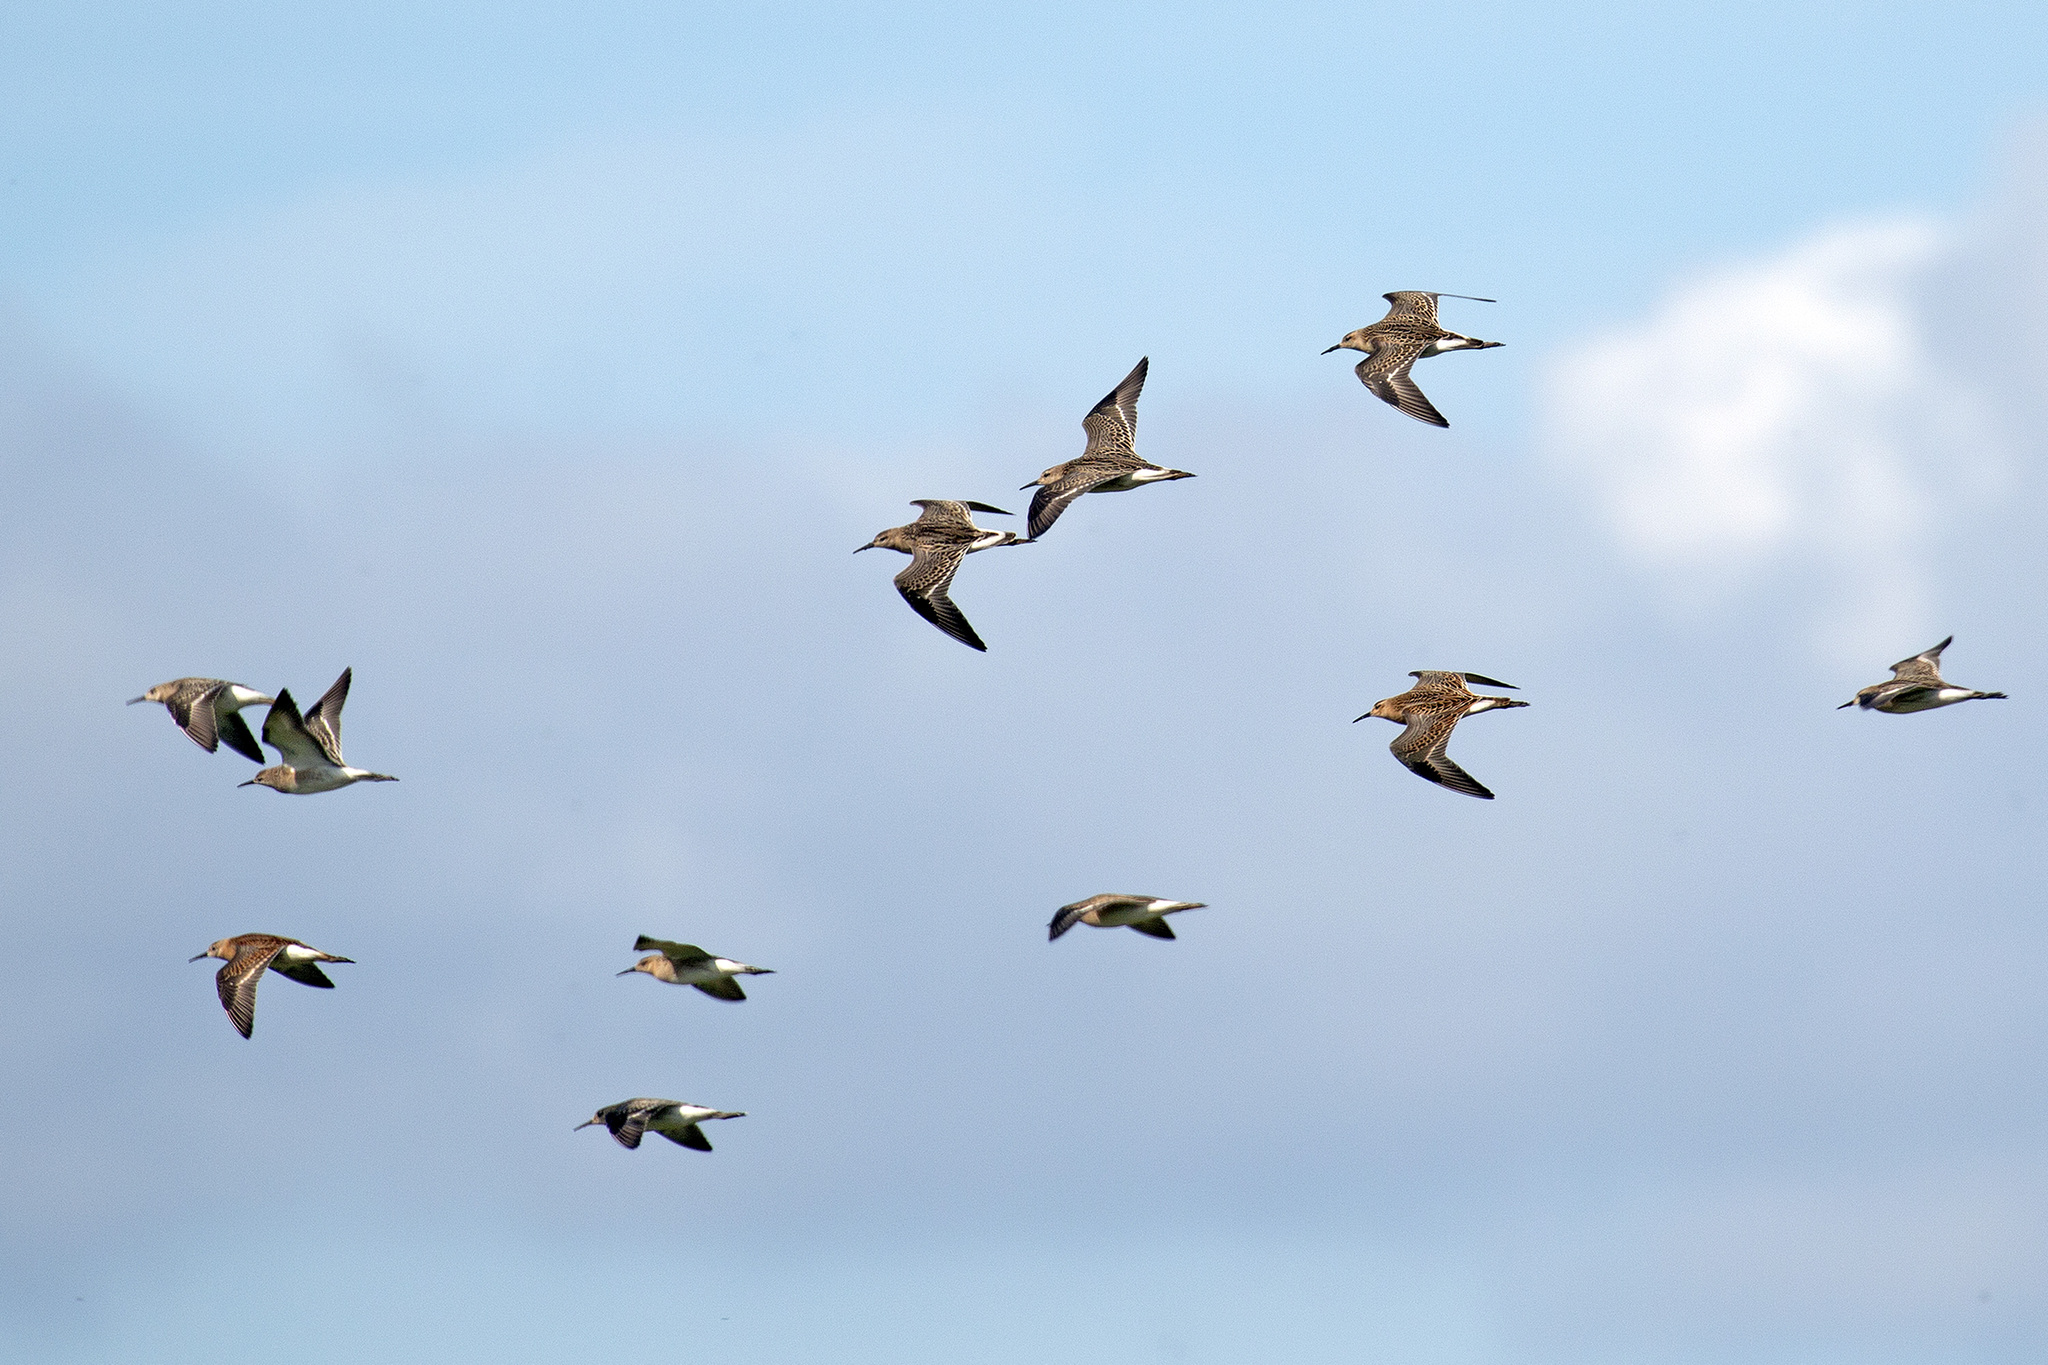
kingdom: Animalia
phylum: Chordata
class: Aves
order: Charadriiformes
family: Scolopacidae
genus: Calidris
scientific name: Calidris pugnax
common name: Ruff
